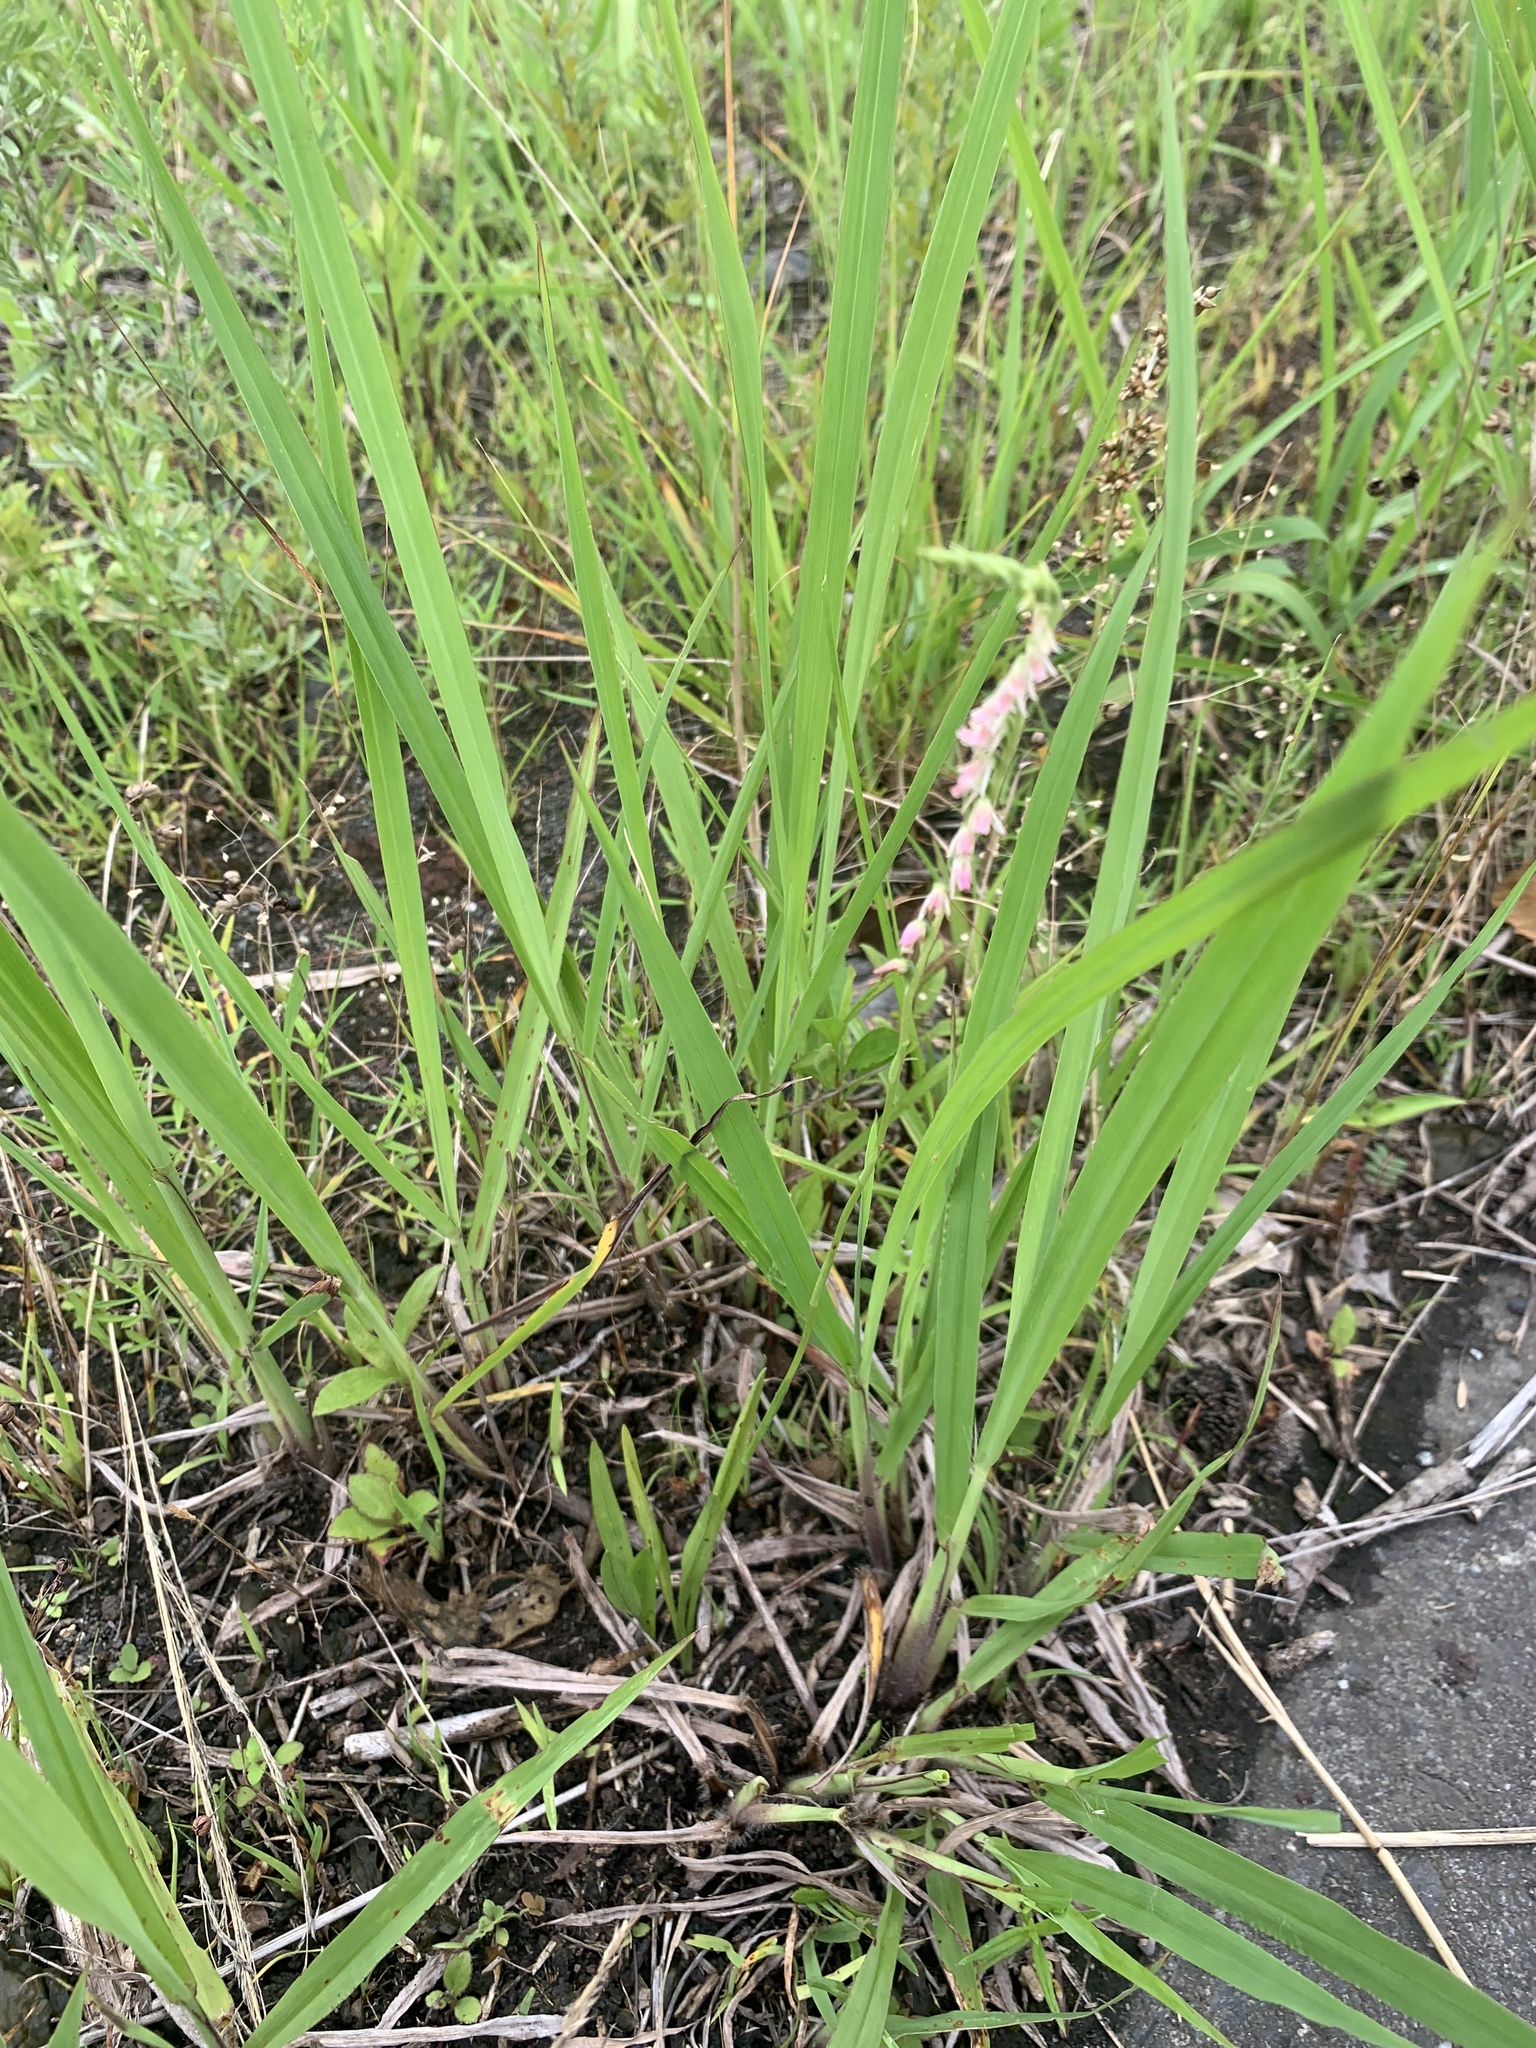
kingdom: Plantae
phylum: Tracheophyta
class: Liliopsida
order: Asparagales
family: Orchidaceae
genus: Spiranthes
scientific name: Spiranthes australis
